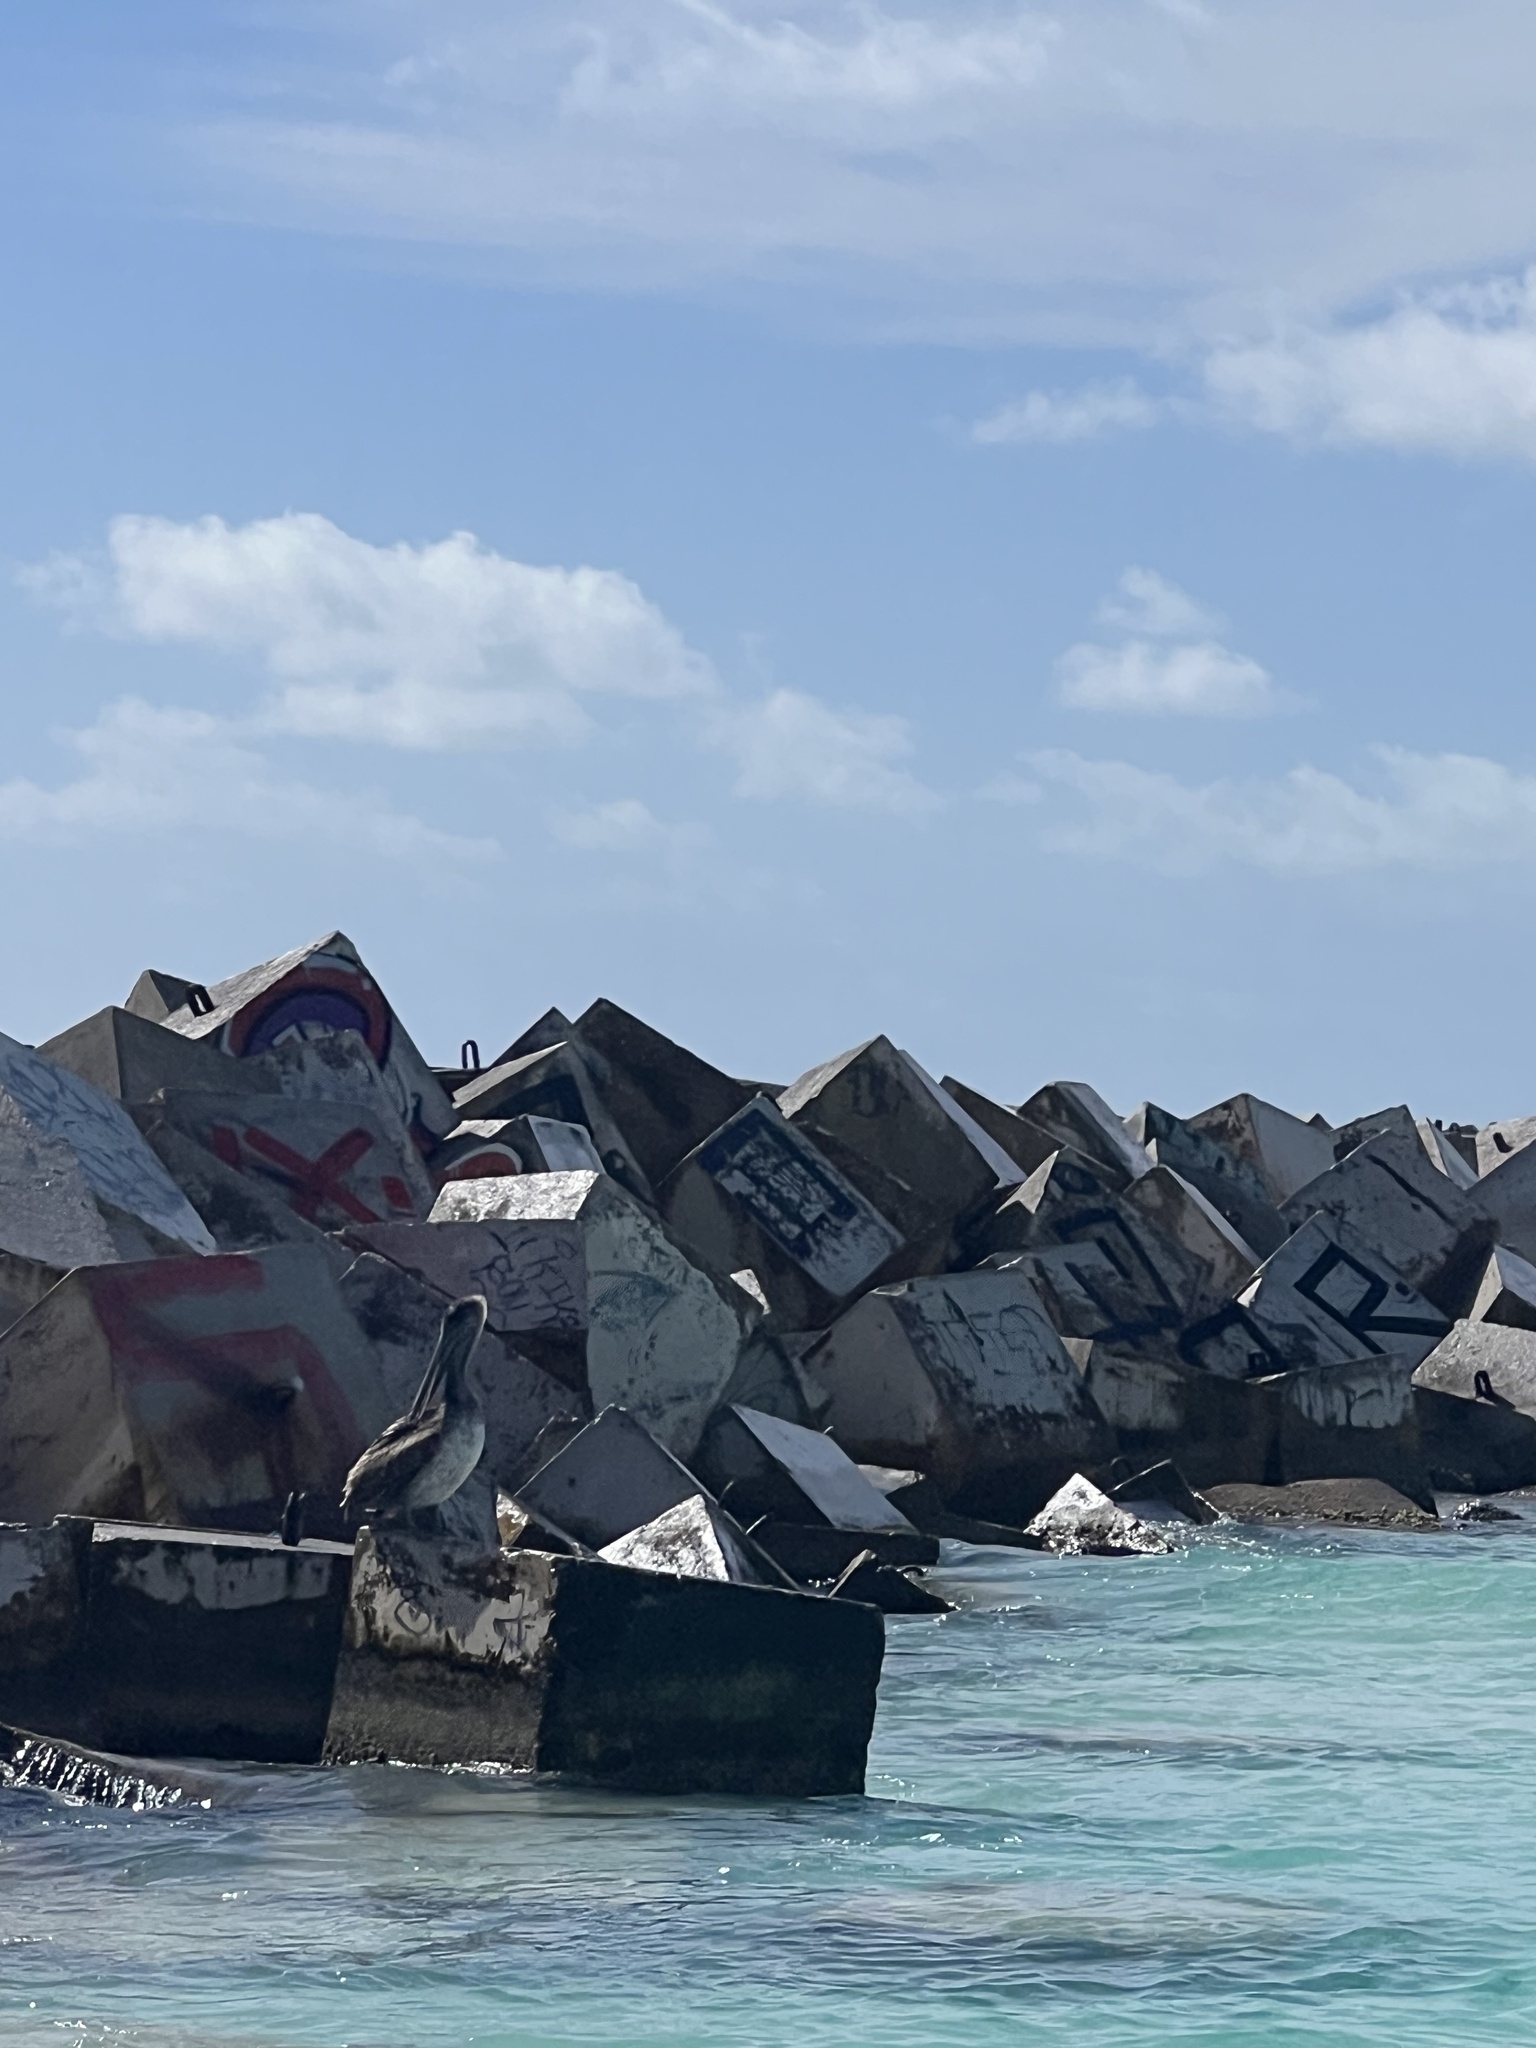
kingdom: Animalia
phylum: Chordata
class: Aves
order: Pelecaniformes
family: Pelecanidae
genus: Pelecanus
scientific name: Pelecanus occidentalis
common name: Brown pelican
